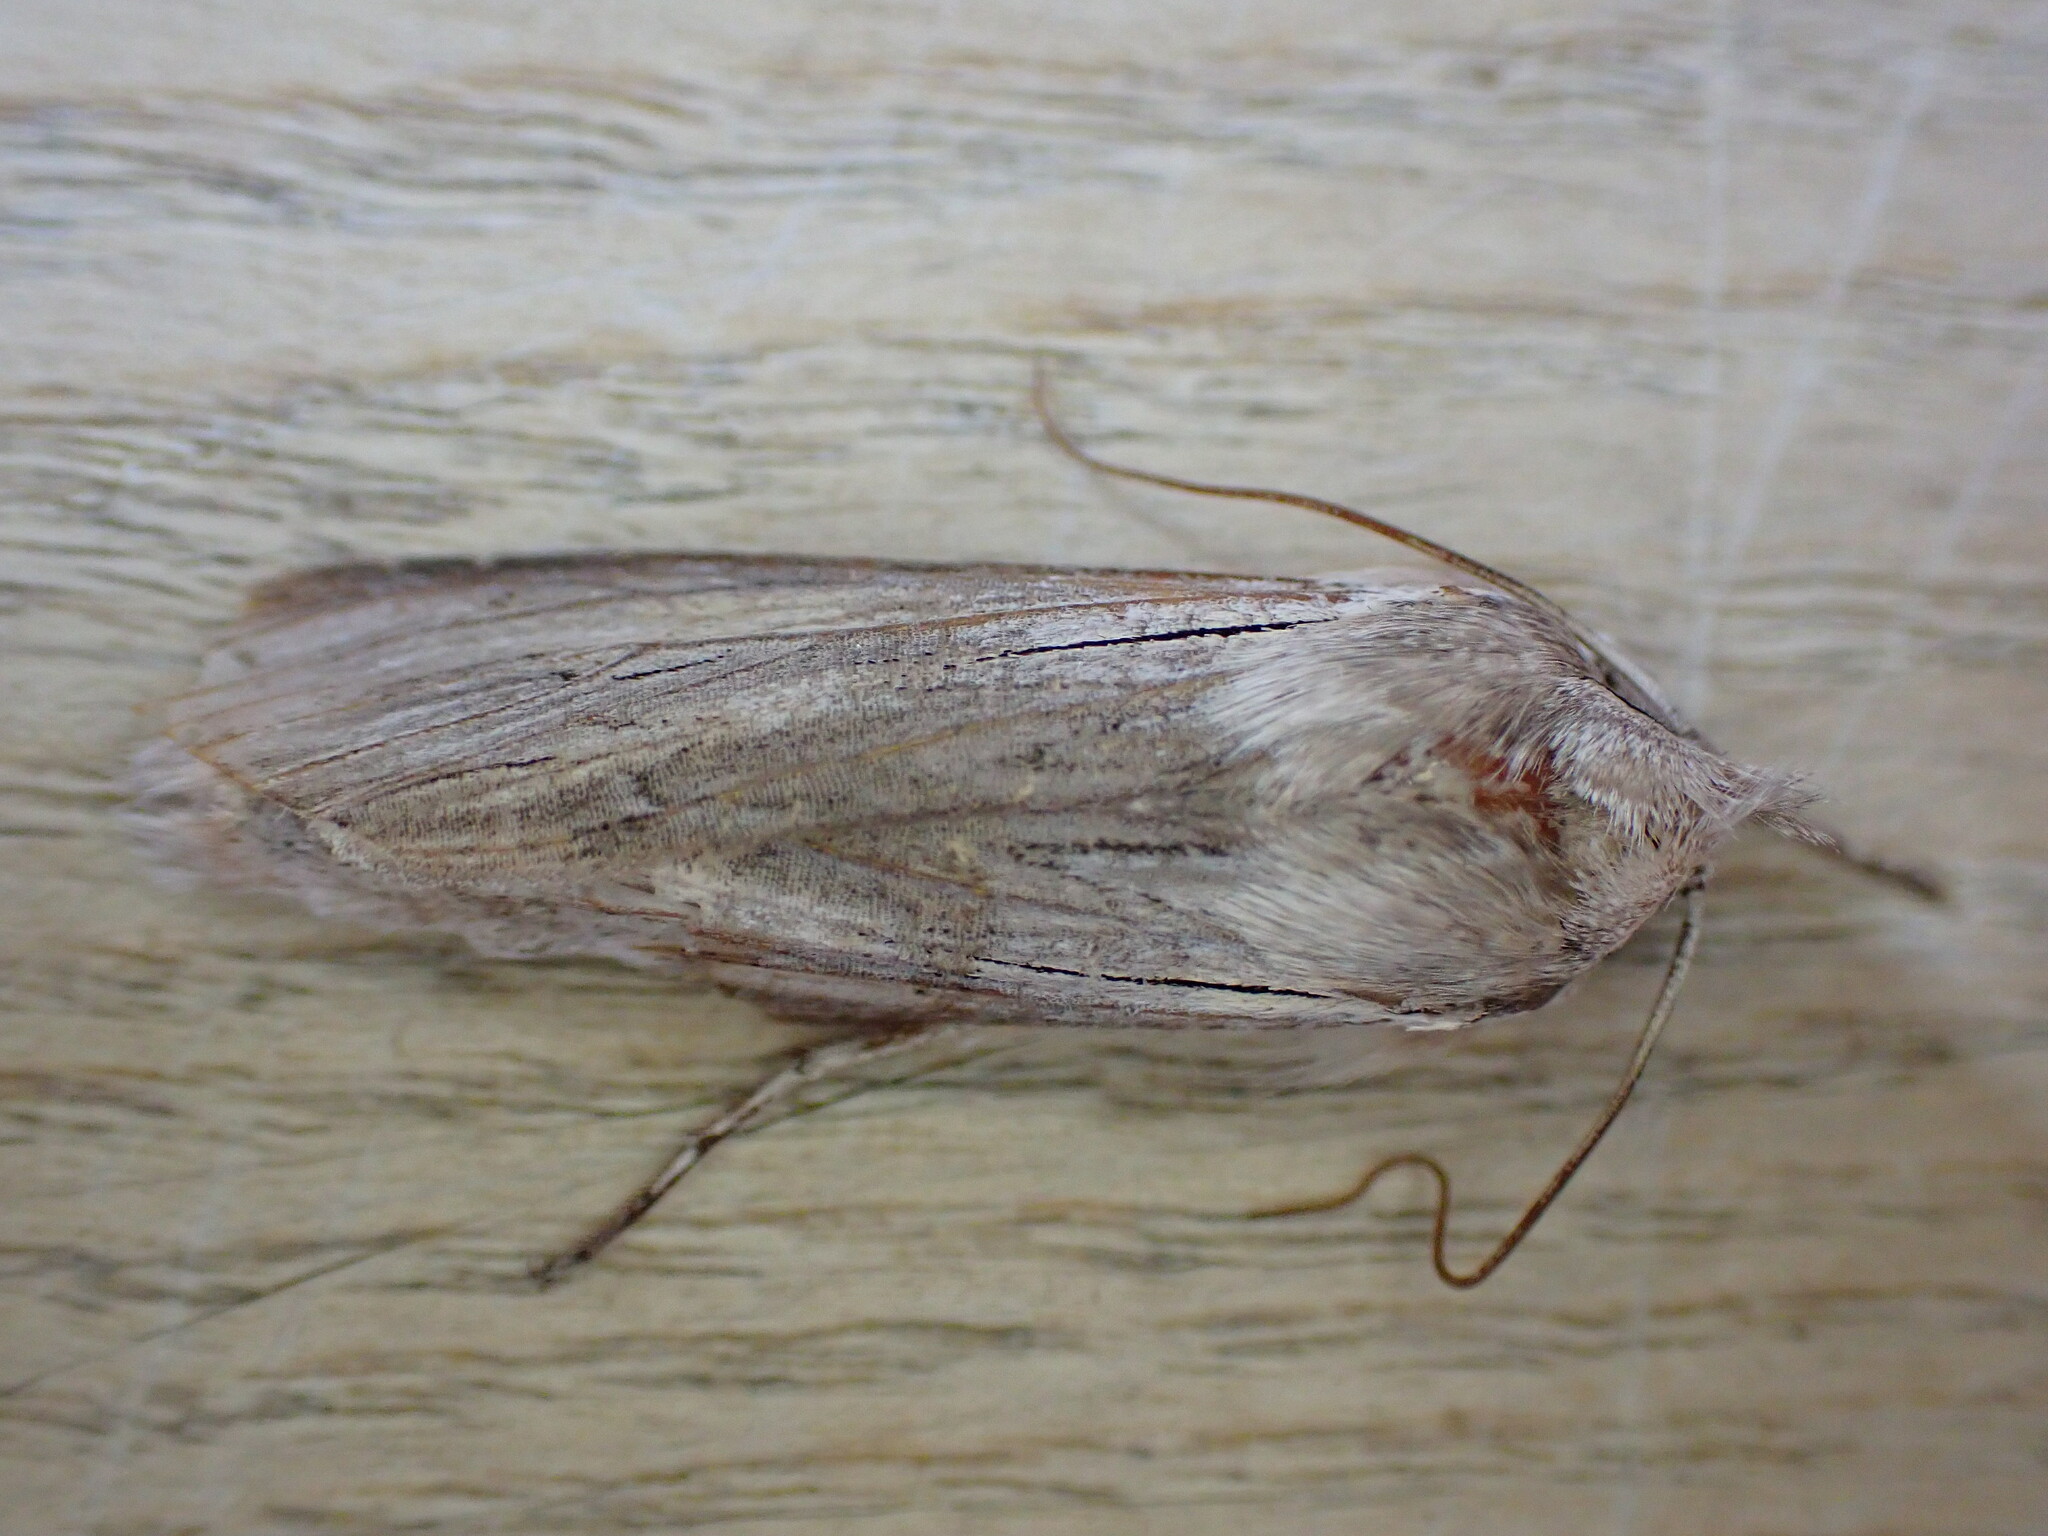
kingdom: Animalia
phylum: Arthropoda
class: Insecta
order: Lepidoptera
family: Noctuidae
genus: Cucullia
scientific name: Cucullia umbratica
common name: Shark
